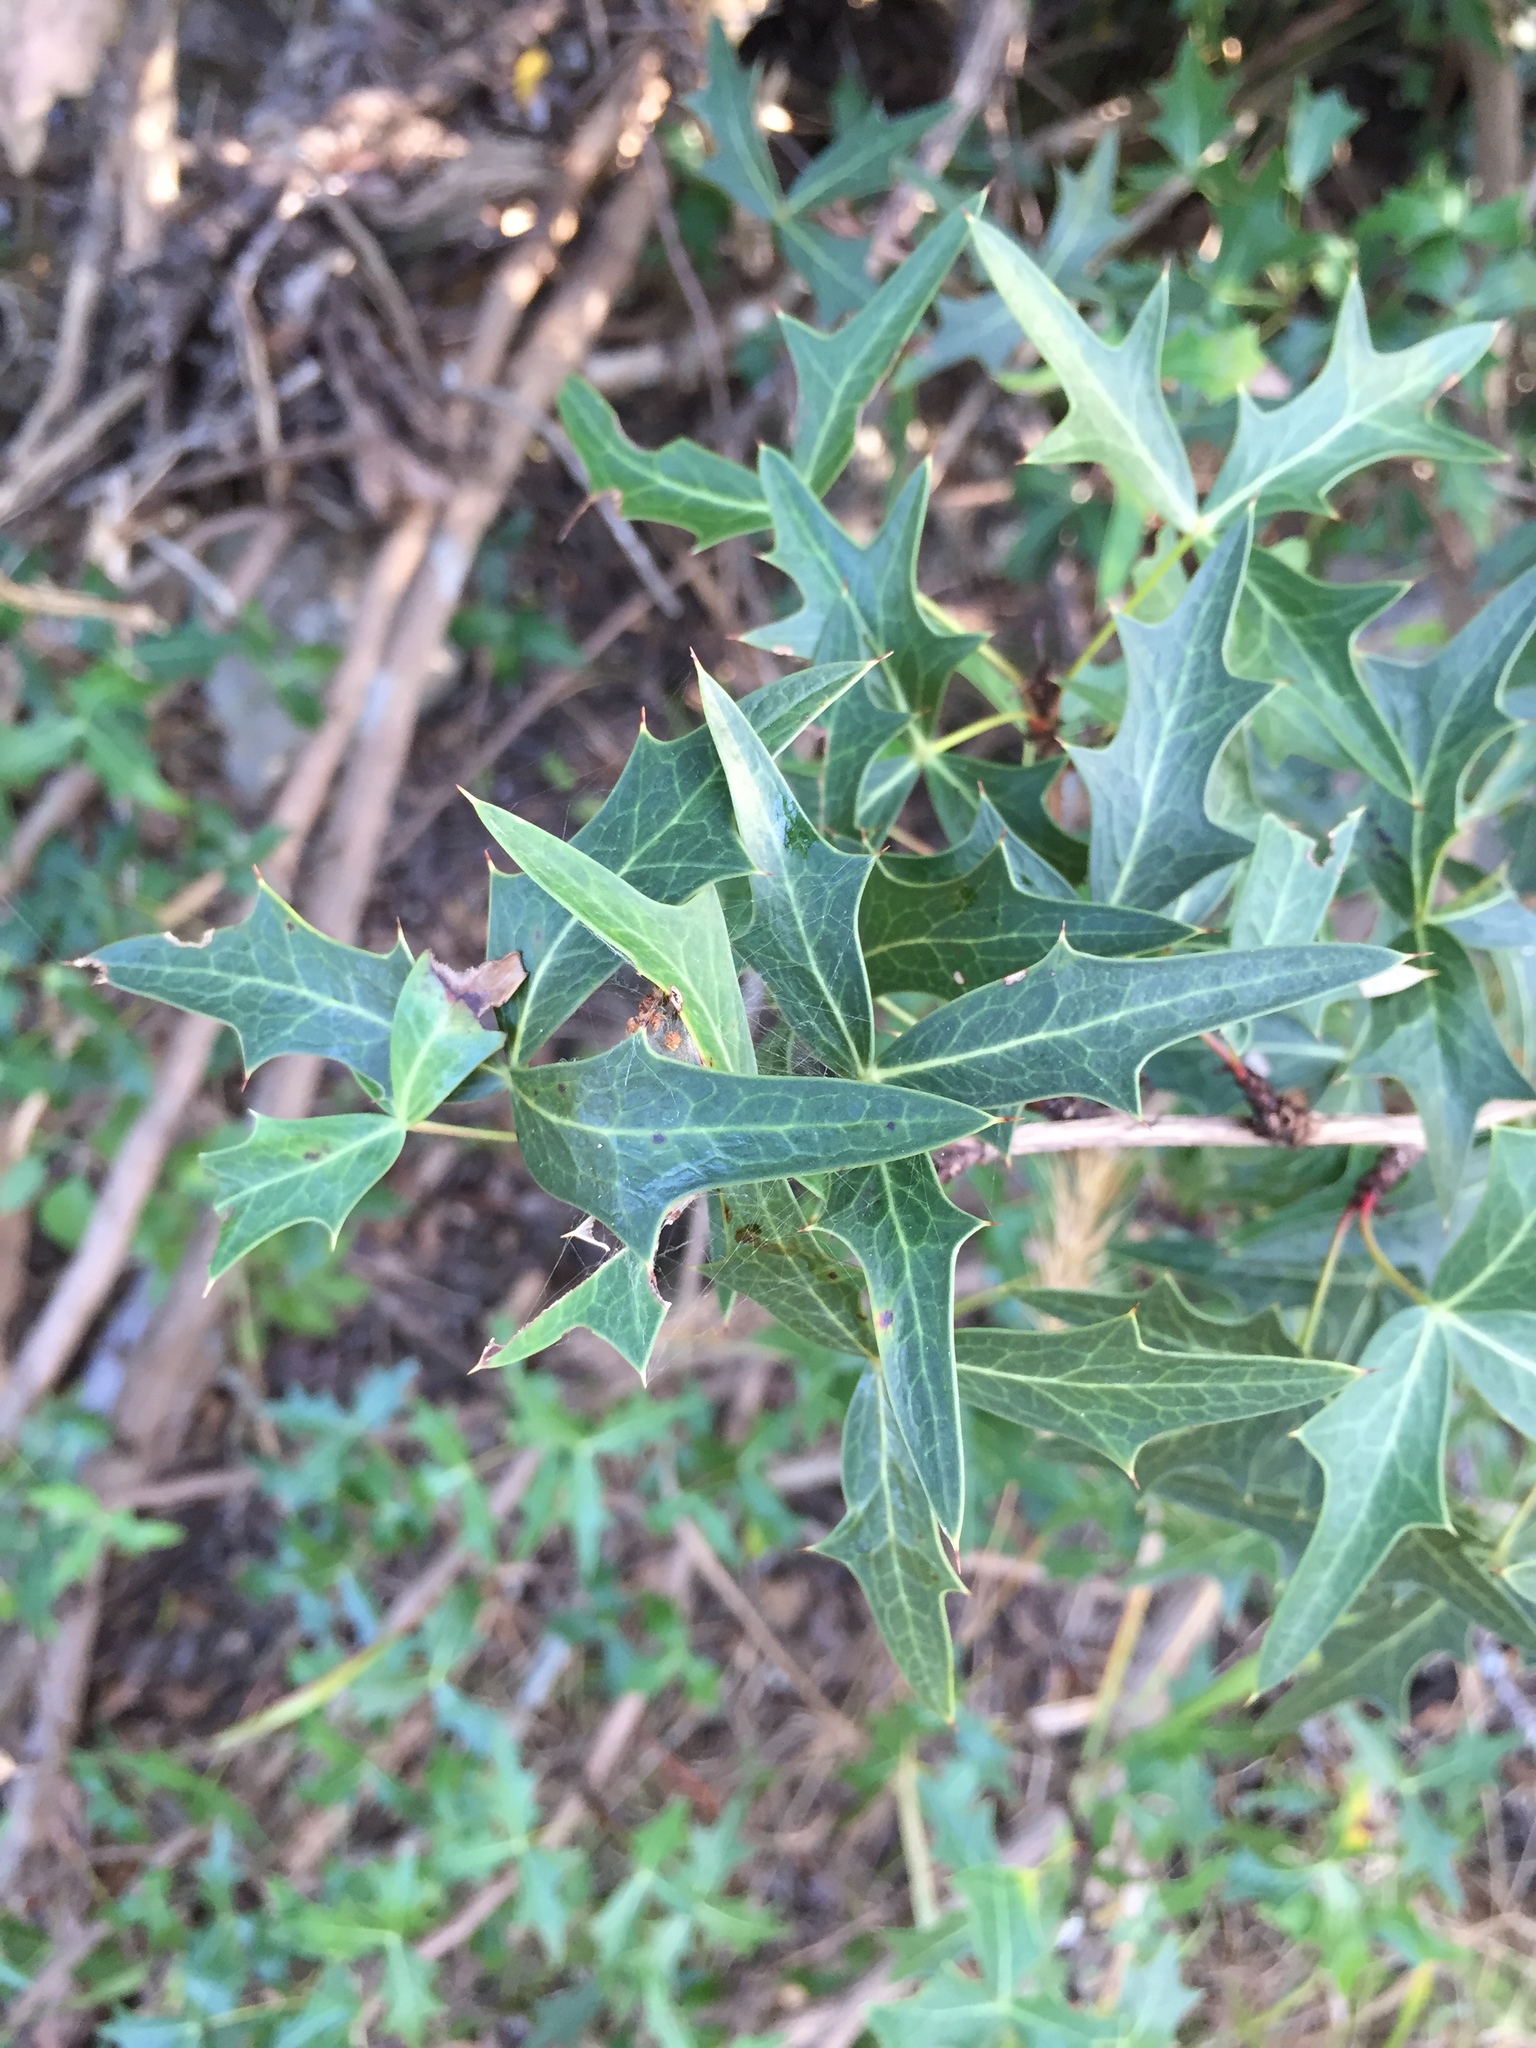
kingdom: Plantae
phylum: Tracheophyta
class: Magnoliopsida
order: Ranunculales
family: Berberidaceae
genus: Alloberberis
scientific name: Alloberberis trifoliolata
